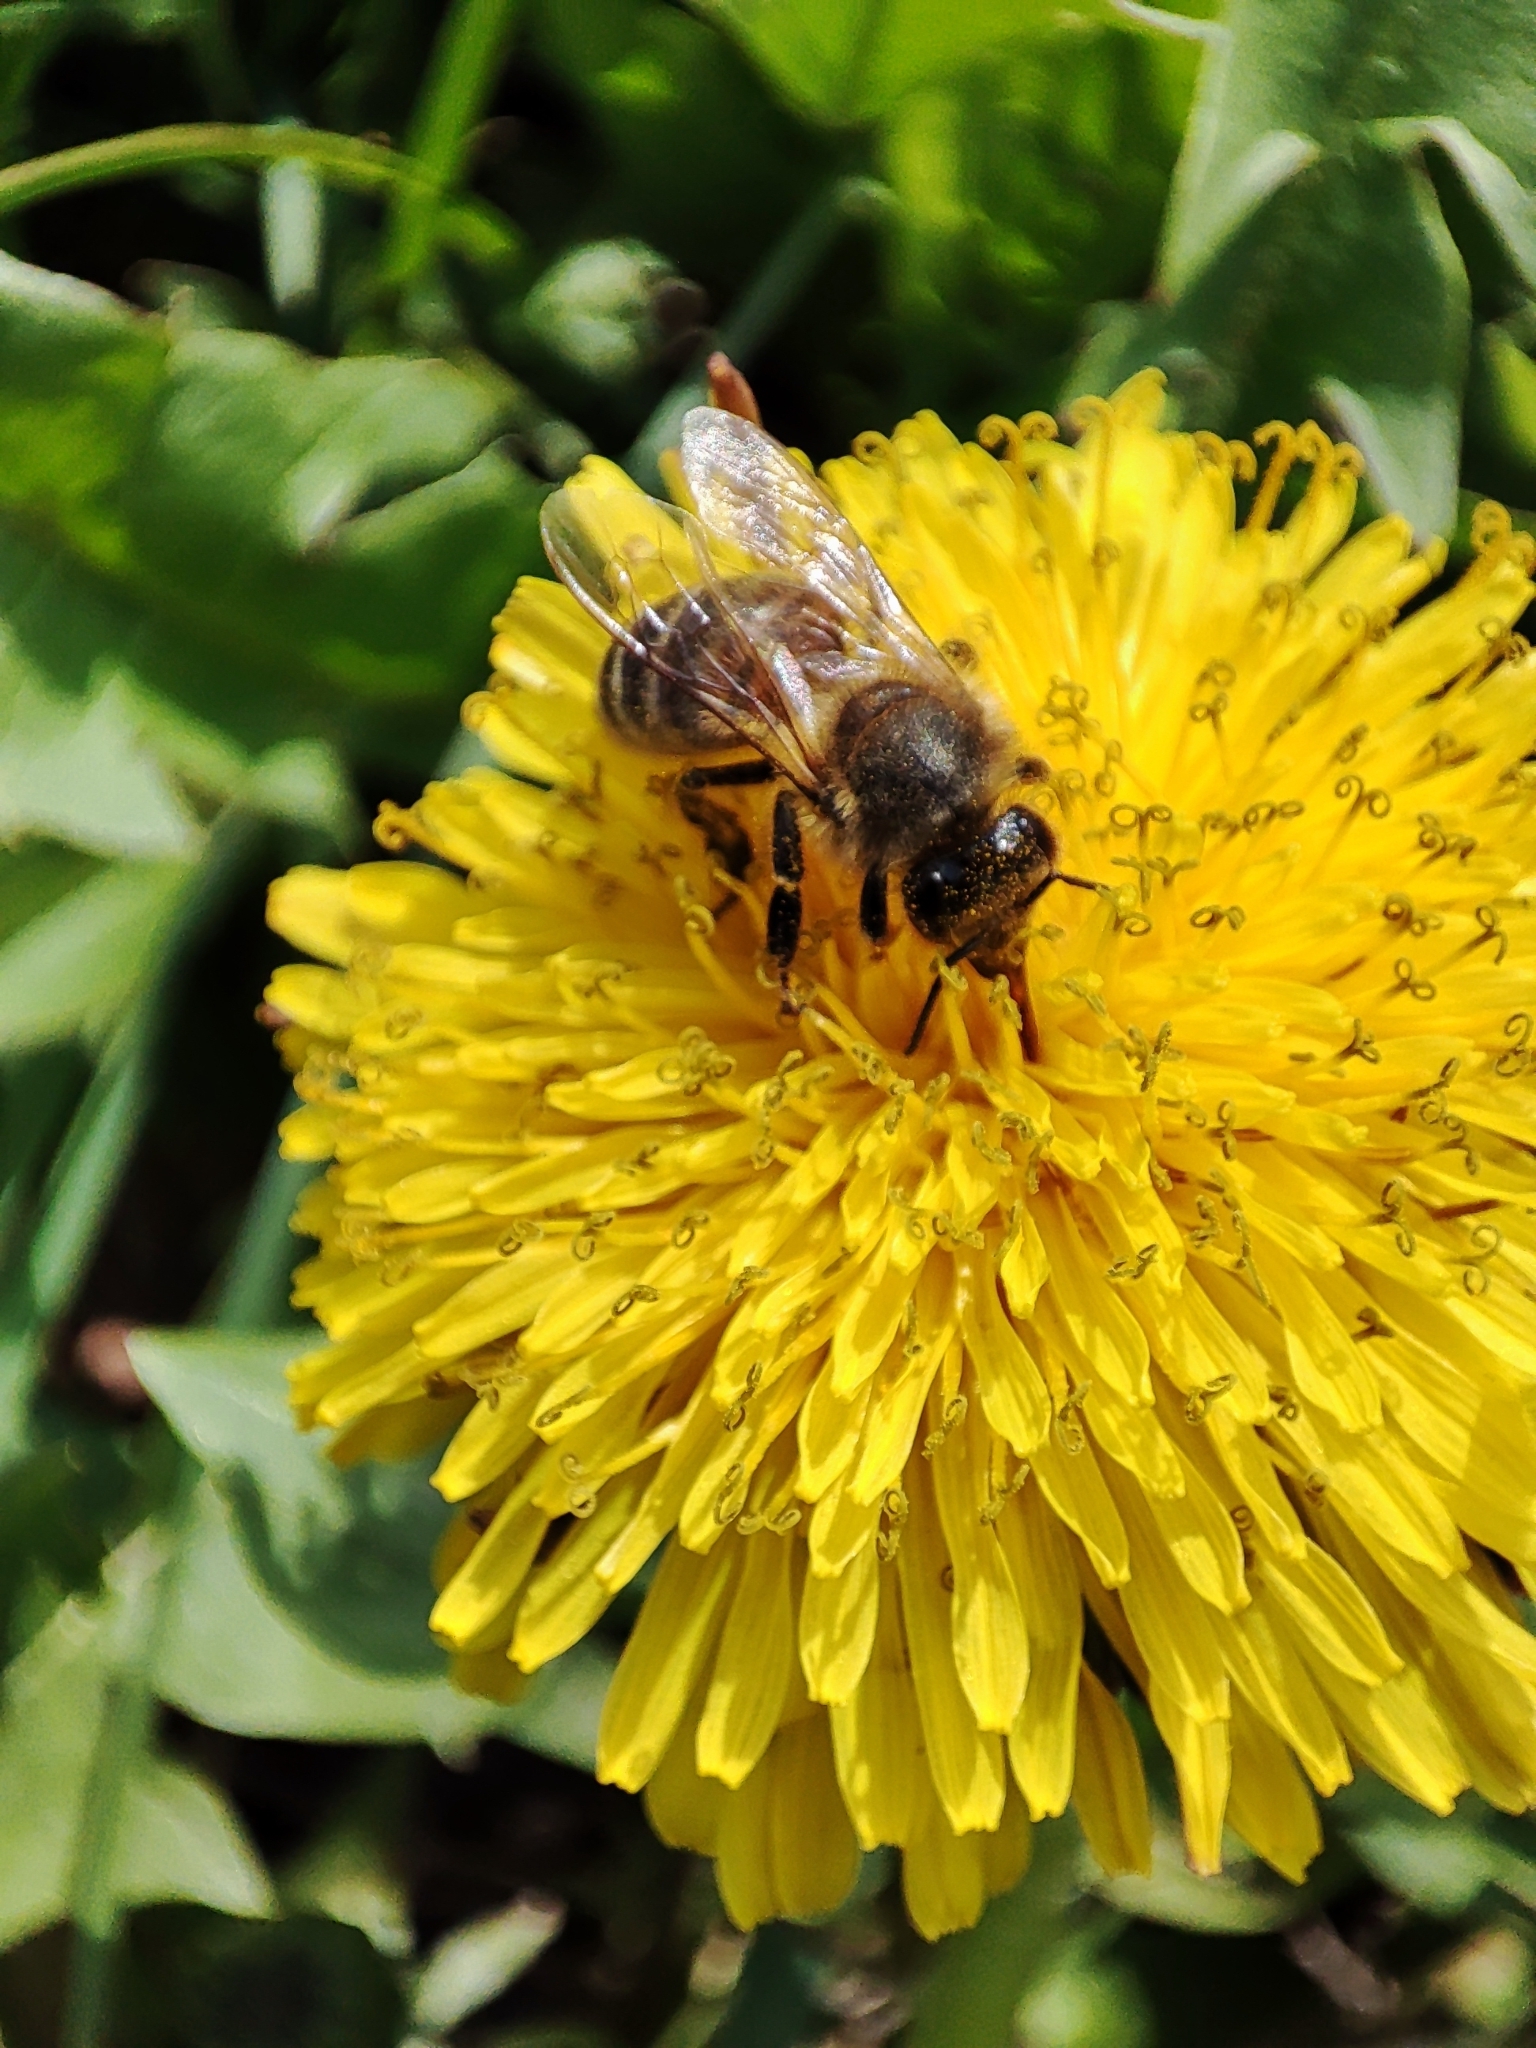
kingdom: Animalia
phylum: Arthropoda
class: Insecta
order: Hymenoptera
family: Apidae
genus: Apis
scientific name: Apis mellifera
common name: Honey bee
